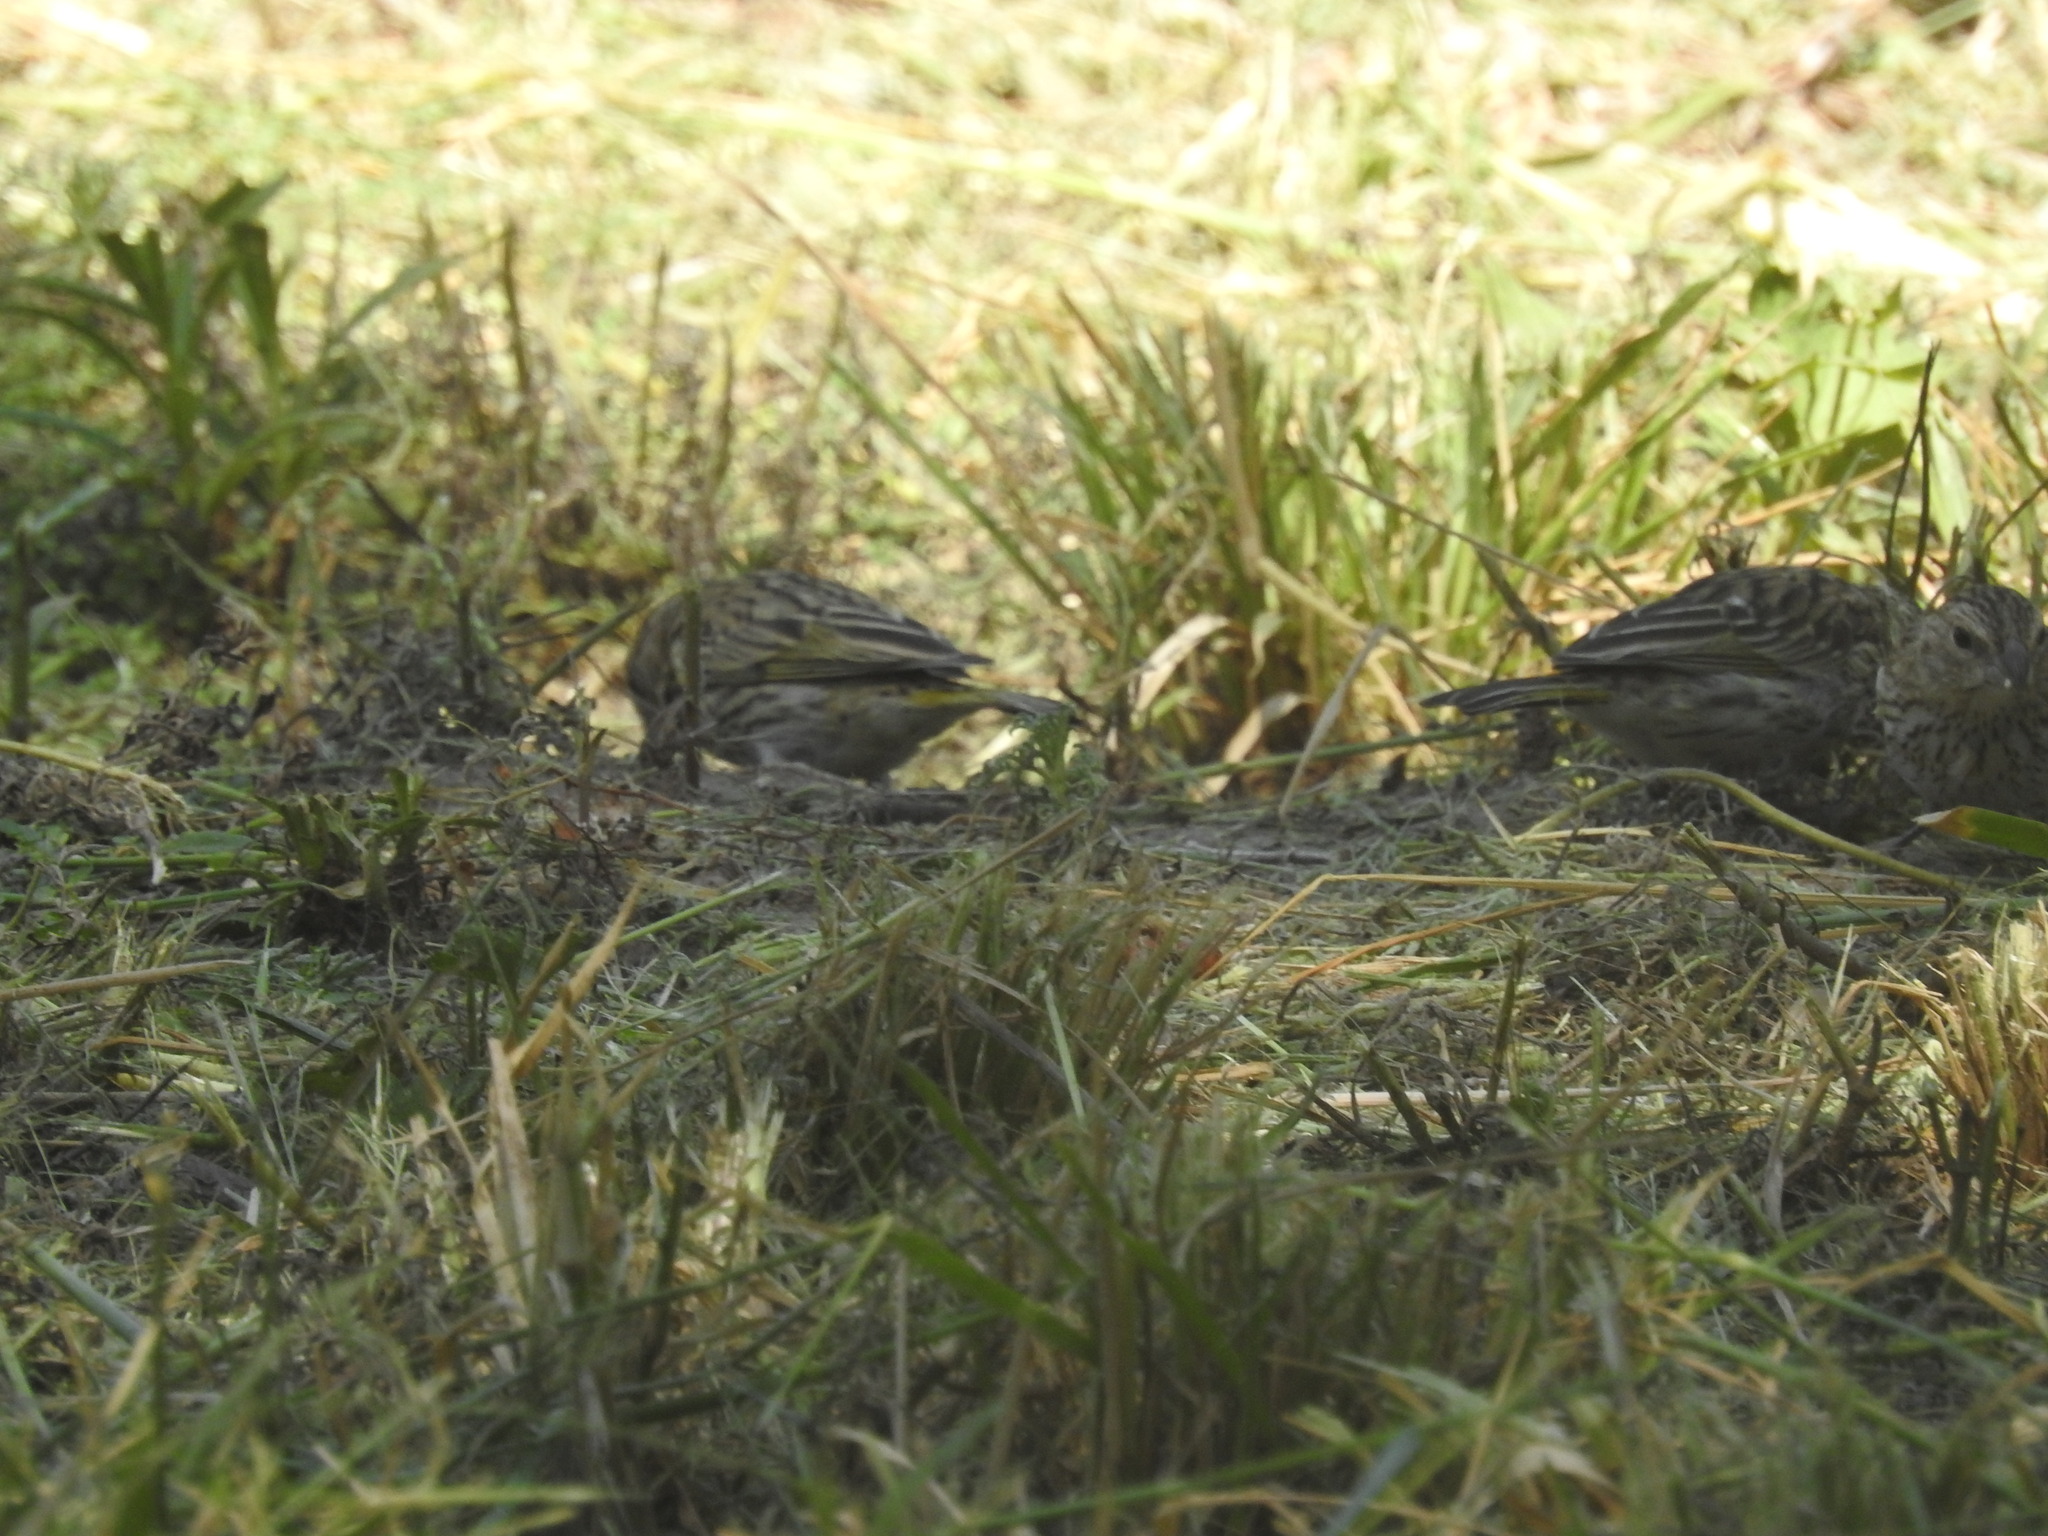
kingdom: Animalia
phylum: Chordata
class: Aves
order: Passeriformes
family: Thraupidae
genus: Sicalis
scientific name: Sicalis flaveola
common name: Saffron finch
